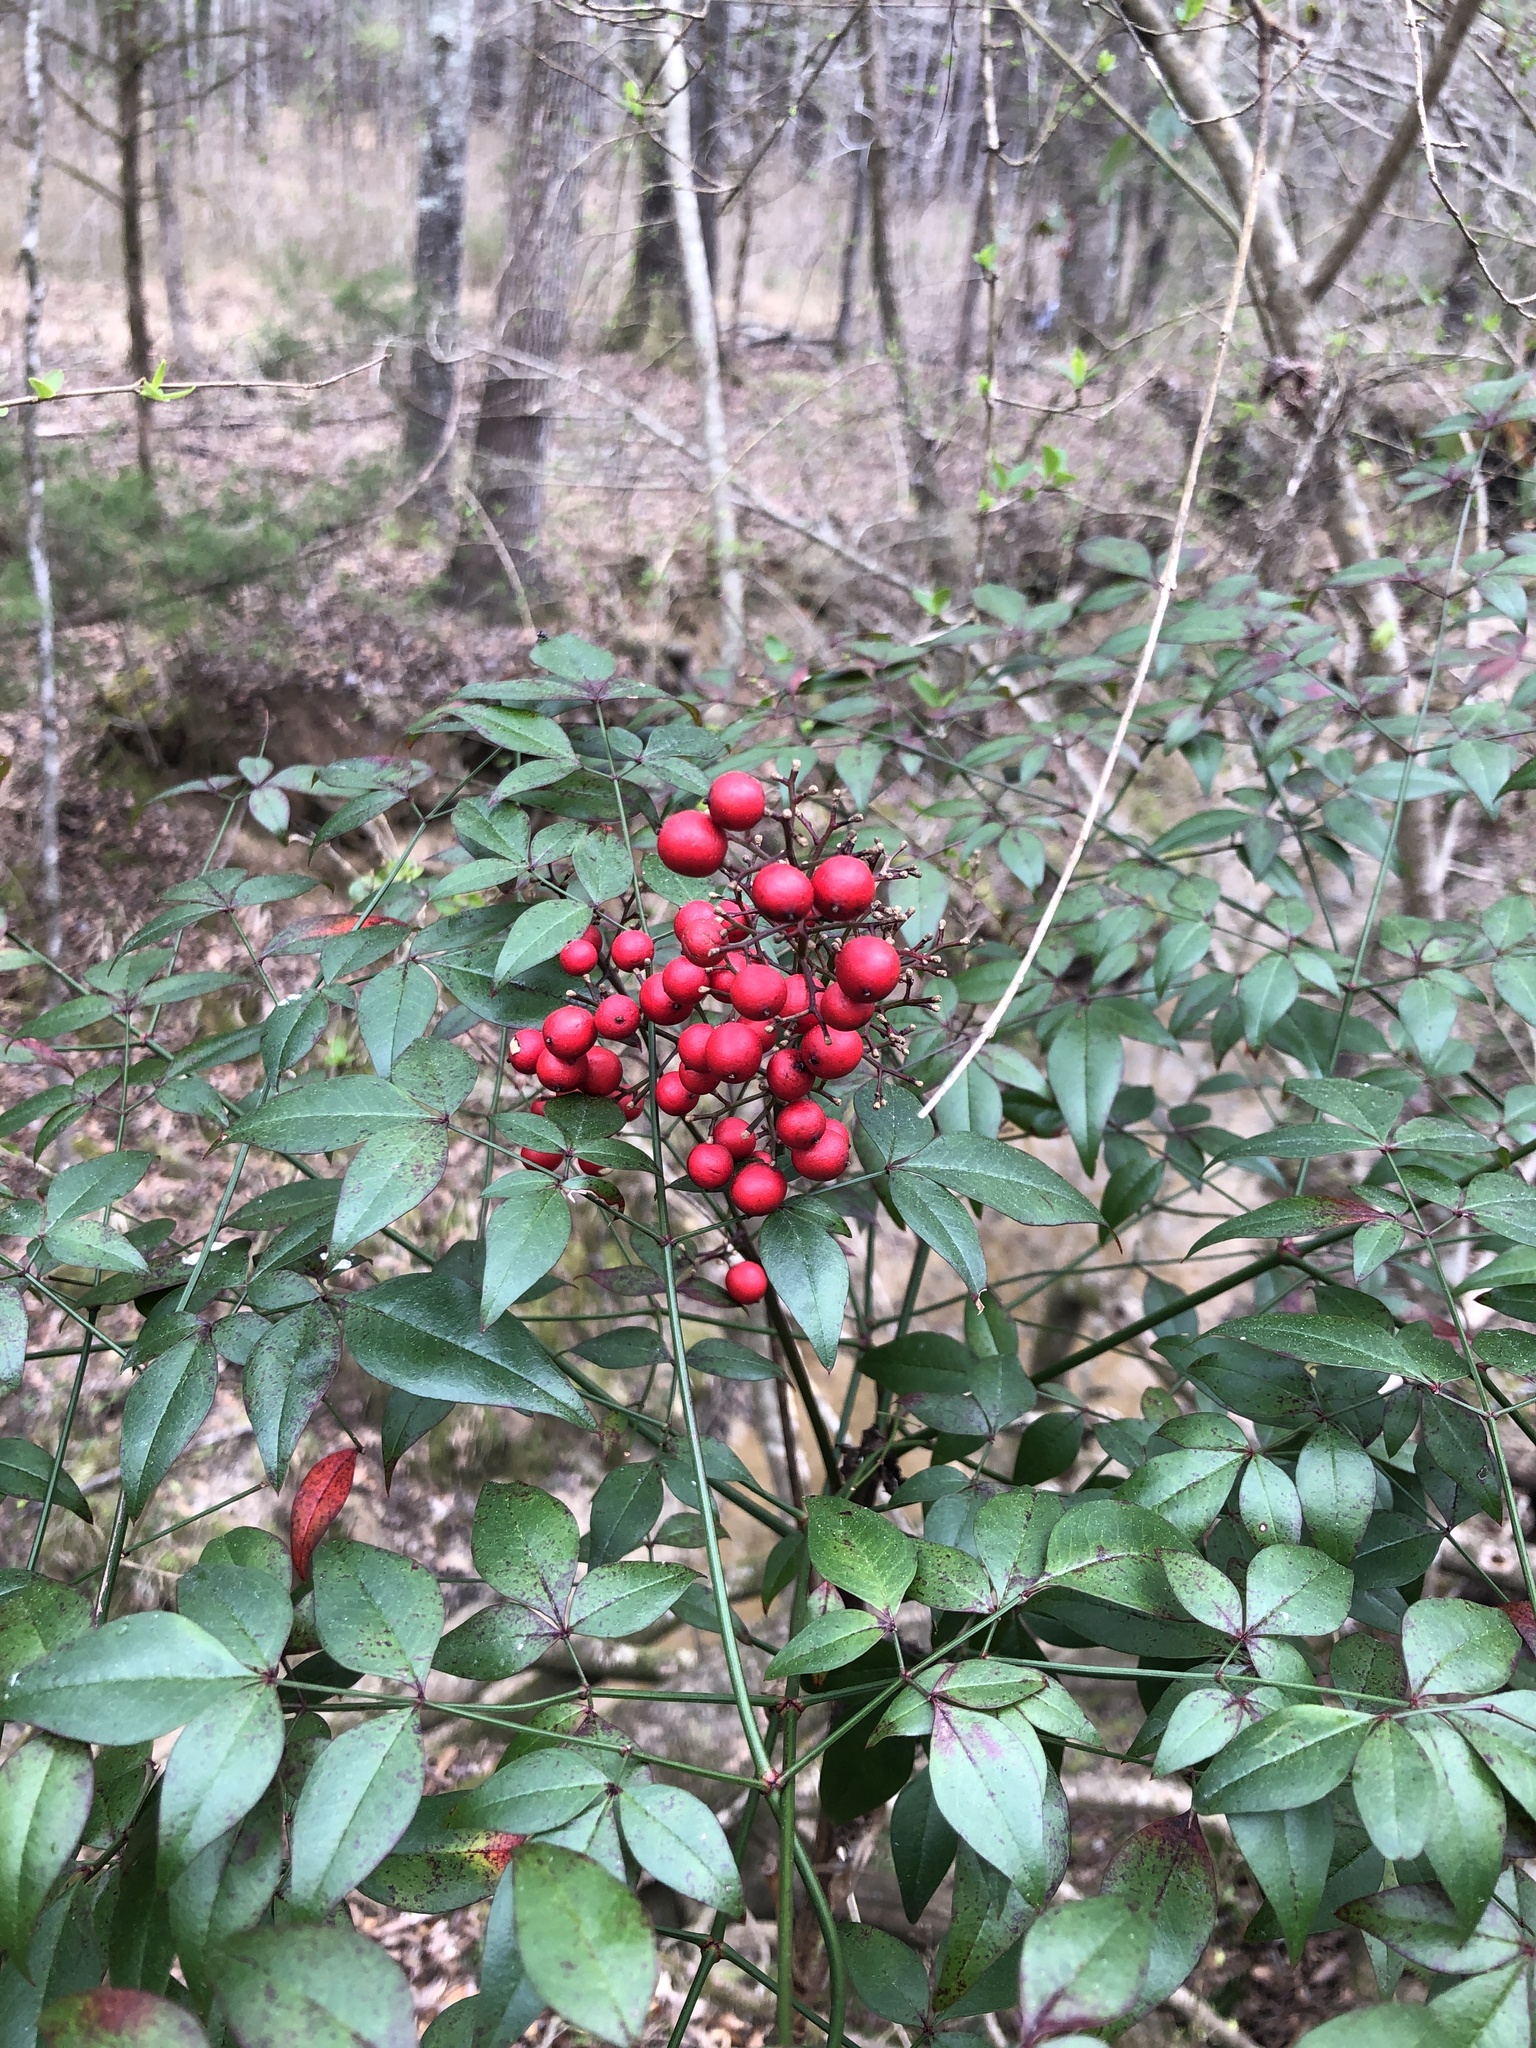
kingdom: Plantae
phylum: Tracheophyta
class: Magnoliopsida
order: Ranunculales
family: Berberidaceae
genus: Nandina
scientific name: Nandina domestica
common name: Sacred bamboo
